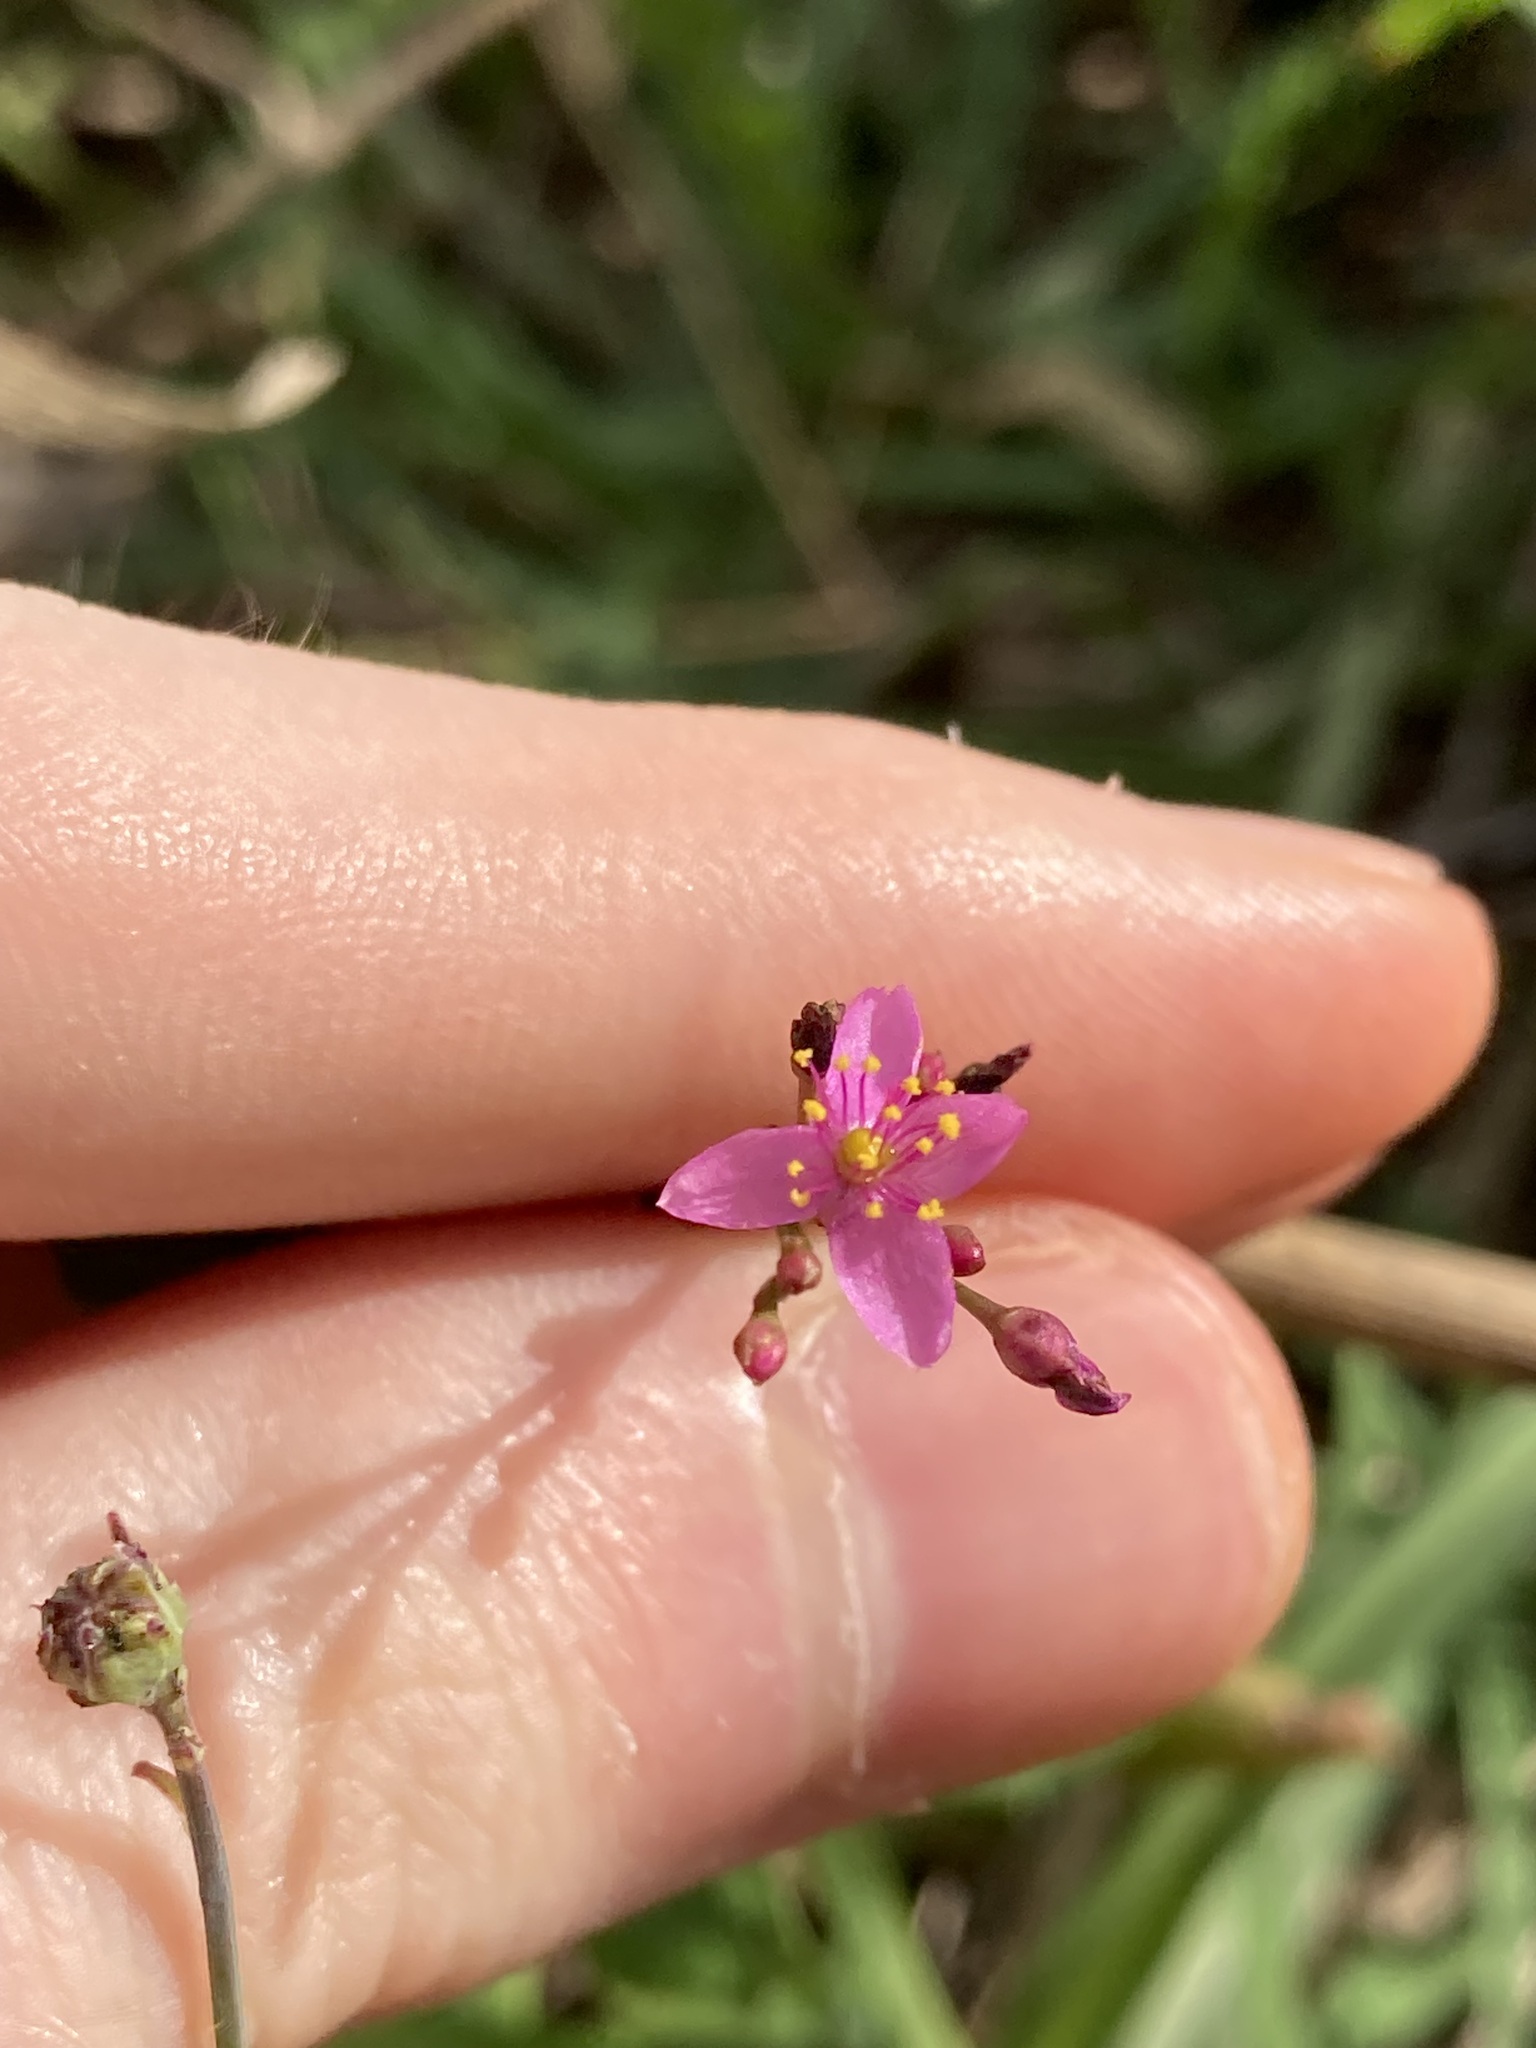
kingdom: Plantae
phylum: Tracheophyta
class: Magnoliopsida
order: Caryophyllales
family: Talinaceae
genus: Talinum
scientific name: Talinum paniculatum
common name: Jewels of opar
